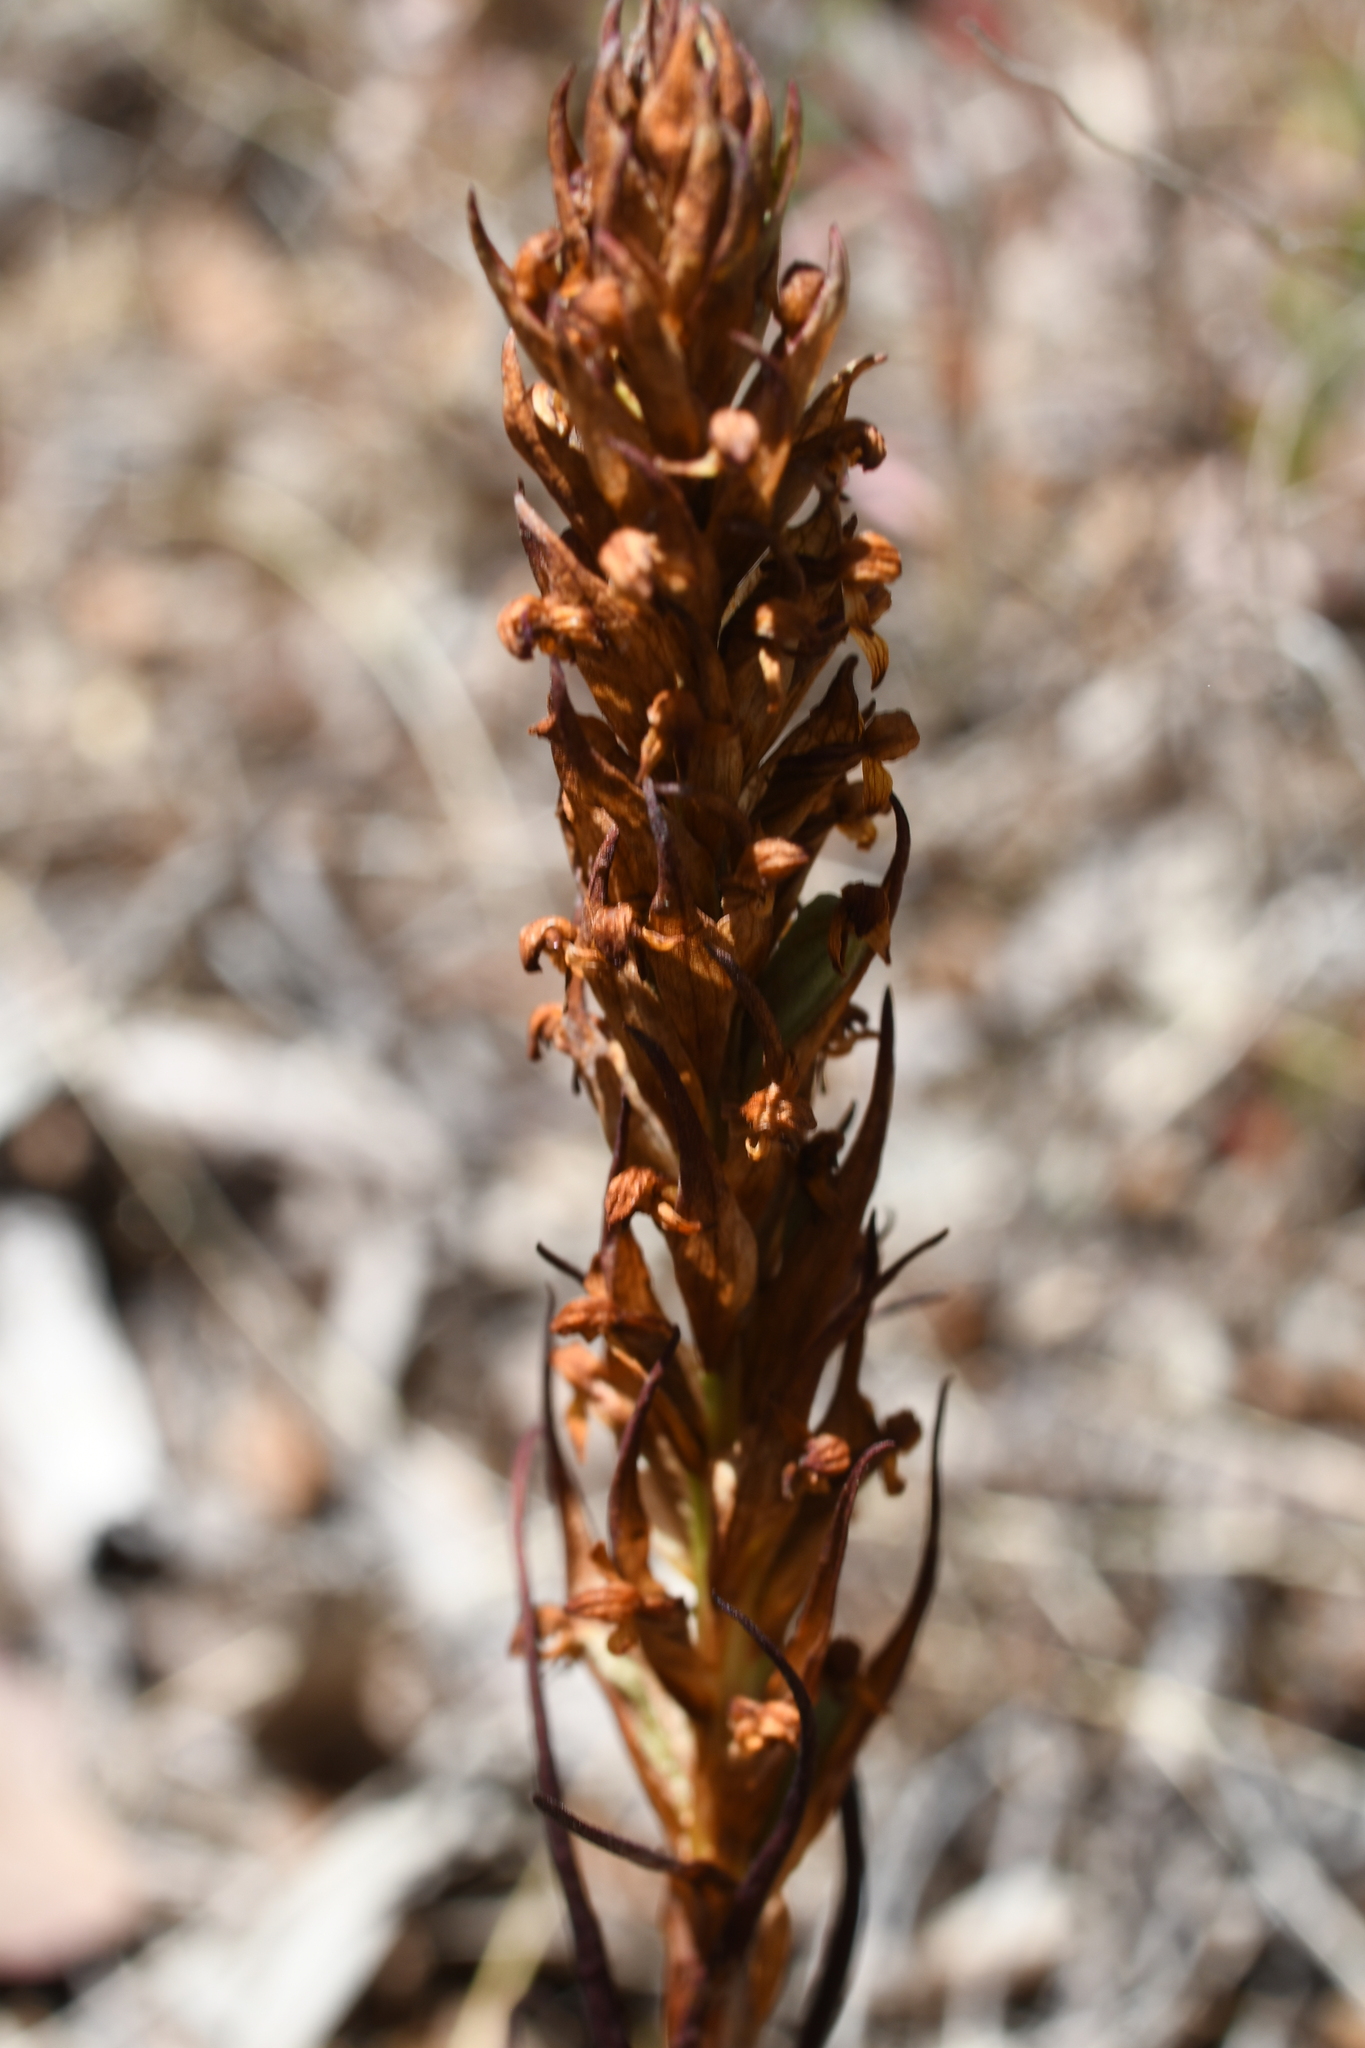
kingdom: Plantae
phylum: Tracheophyta
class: Liliopsida
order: Asparagales
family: Orchidaceae
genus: Disa
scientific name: Disa bracteata
